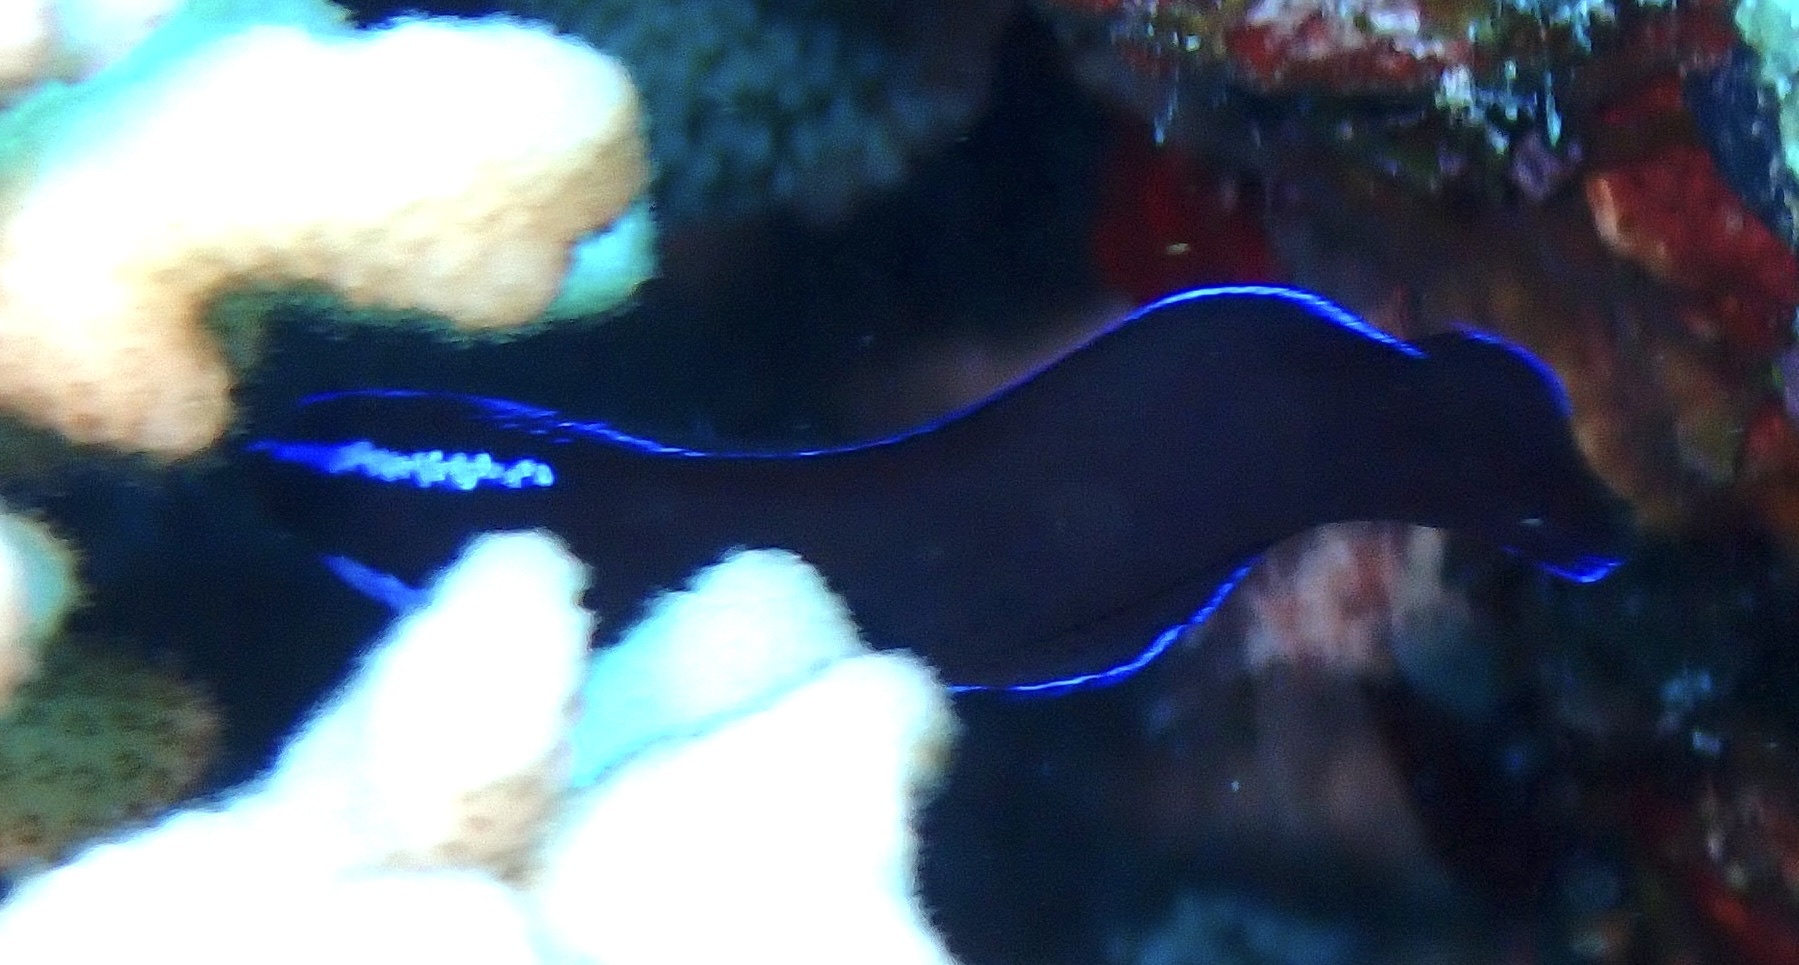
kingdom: Animalia
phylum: Chordata
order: Perciformes
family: Pseudochromidae
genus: Pseudochromis
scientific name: Pseudochromis springeri
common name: Blue-striped dottyback
